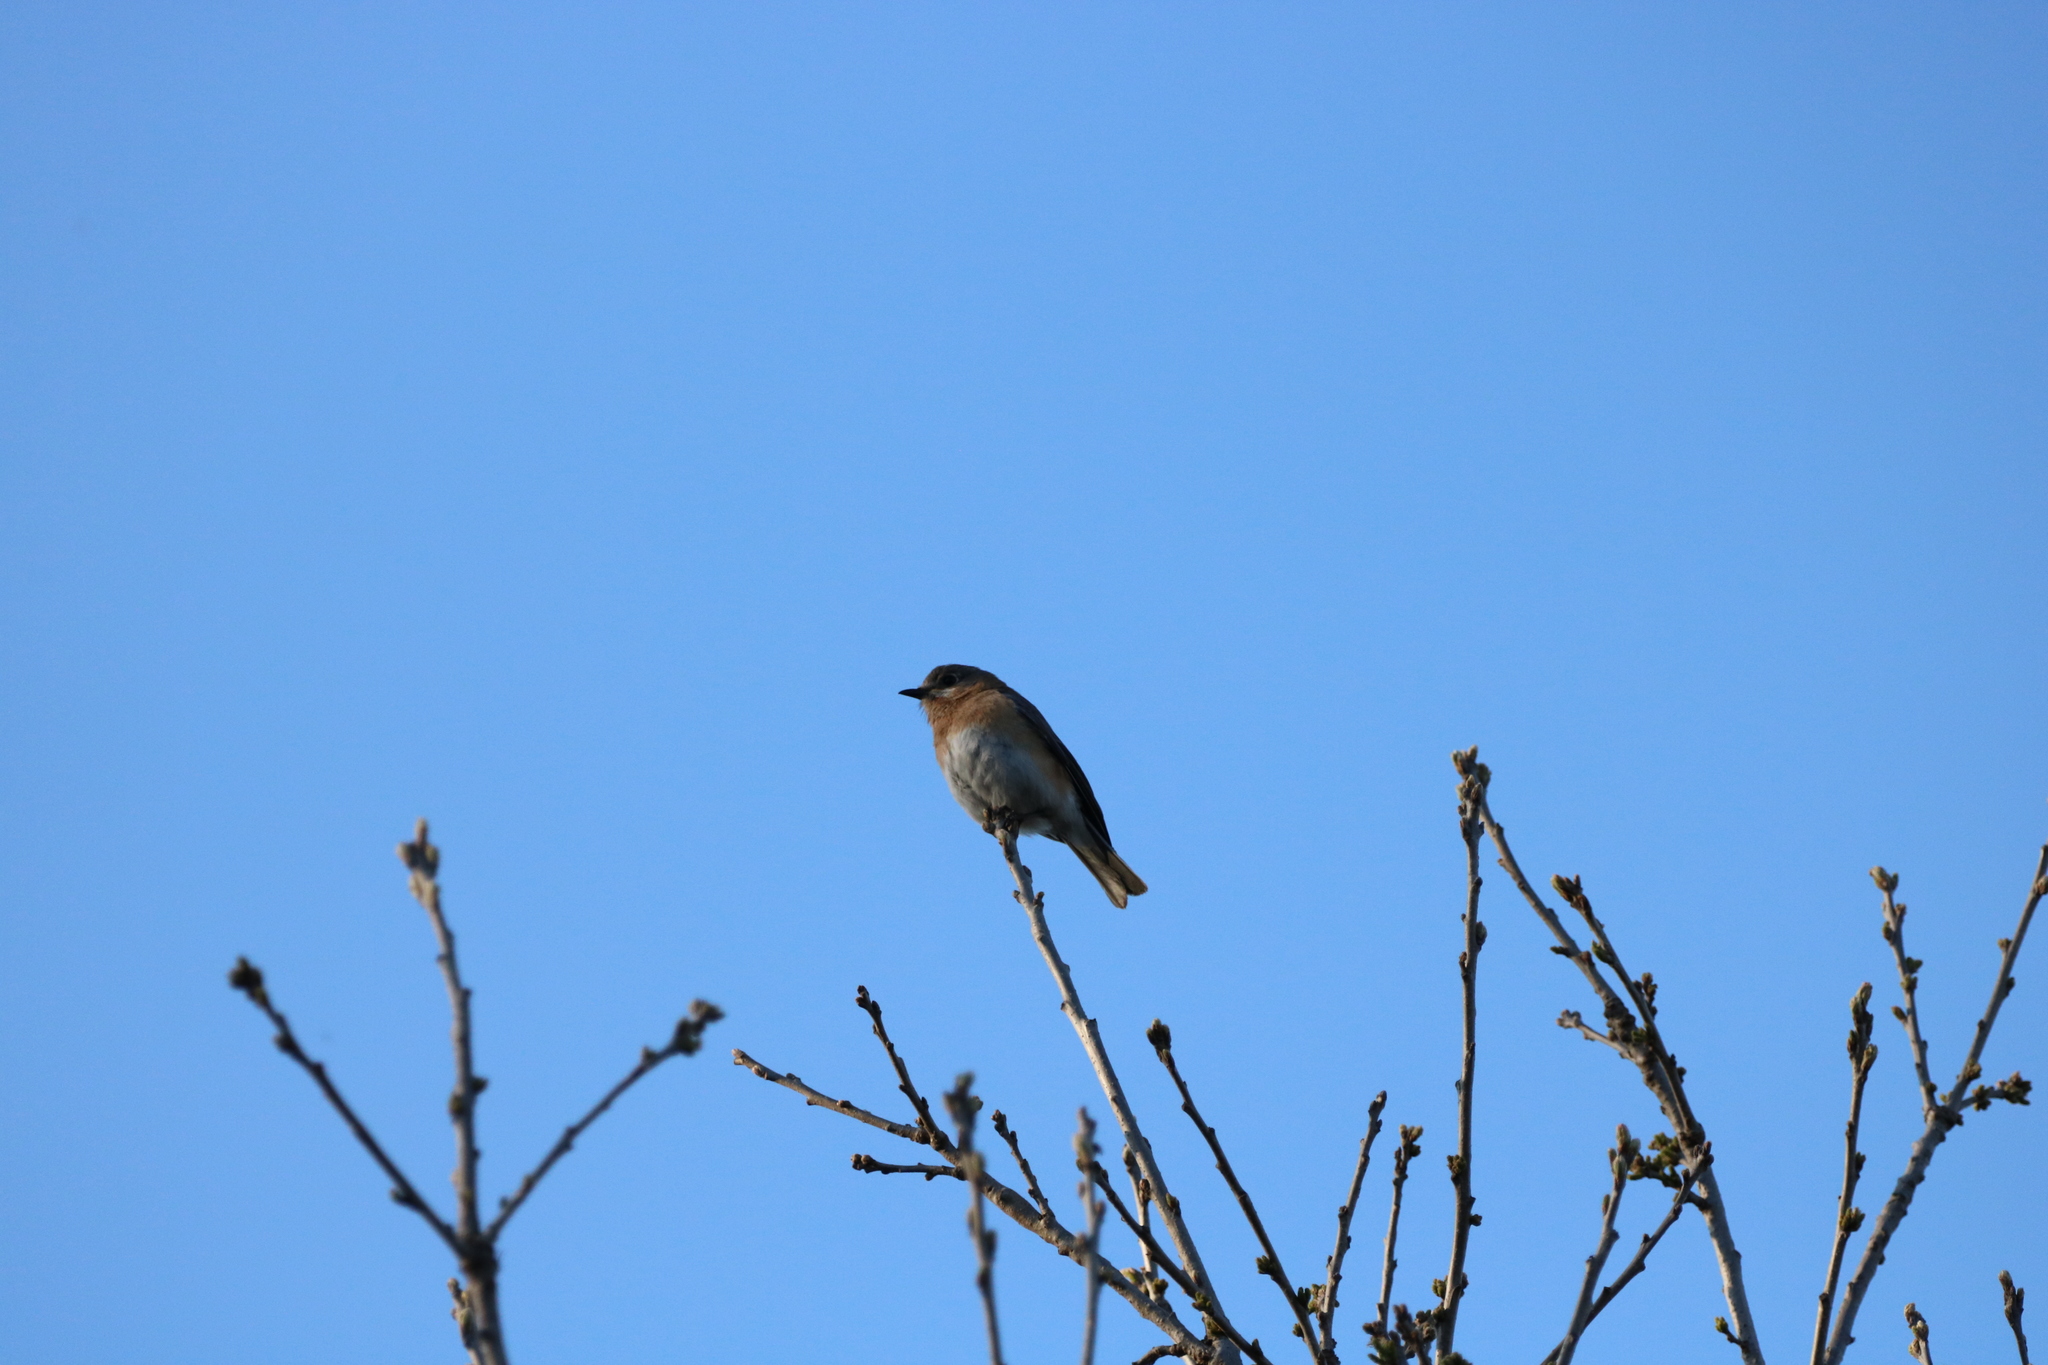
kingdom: Animalia
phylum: Chordata
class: Aves
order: Passeriformes
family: Turdidae
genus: Sialia
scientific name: Sialia sialis
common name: Eastern bluebird
